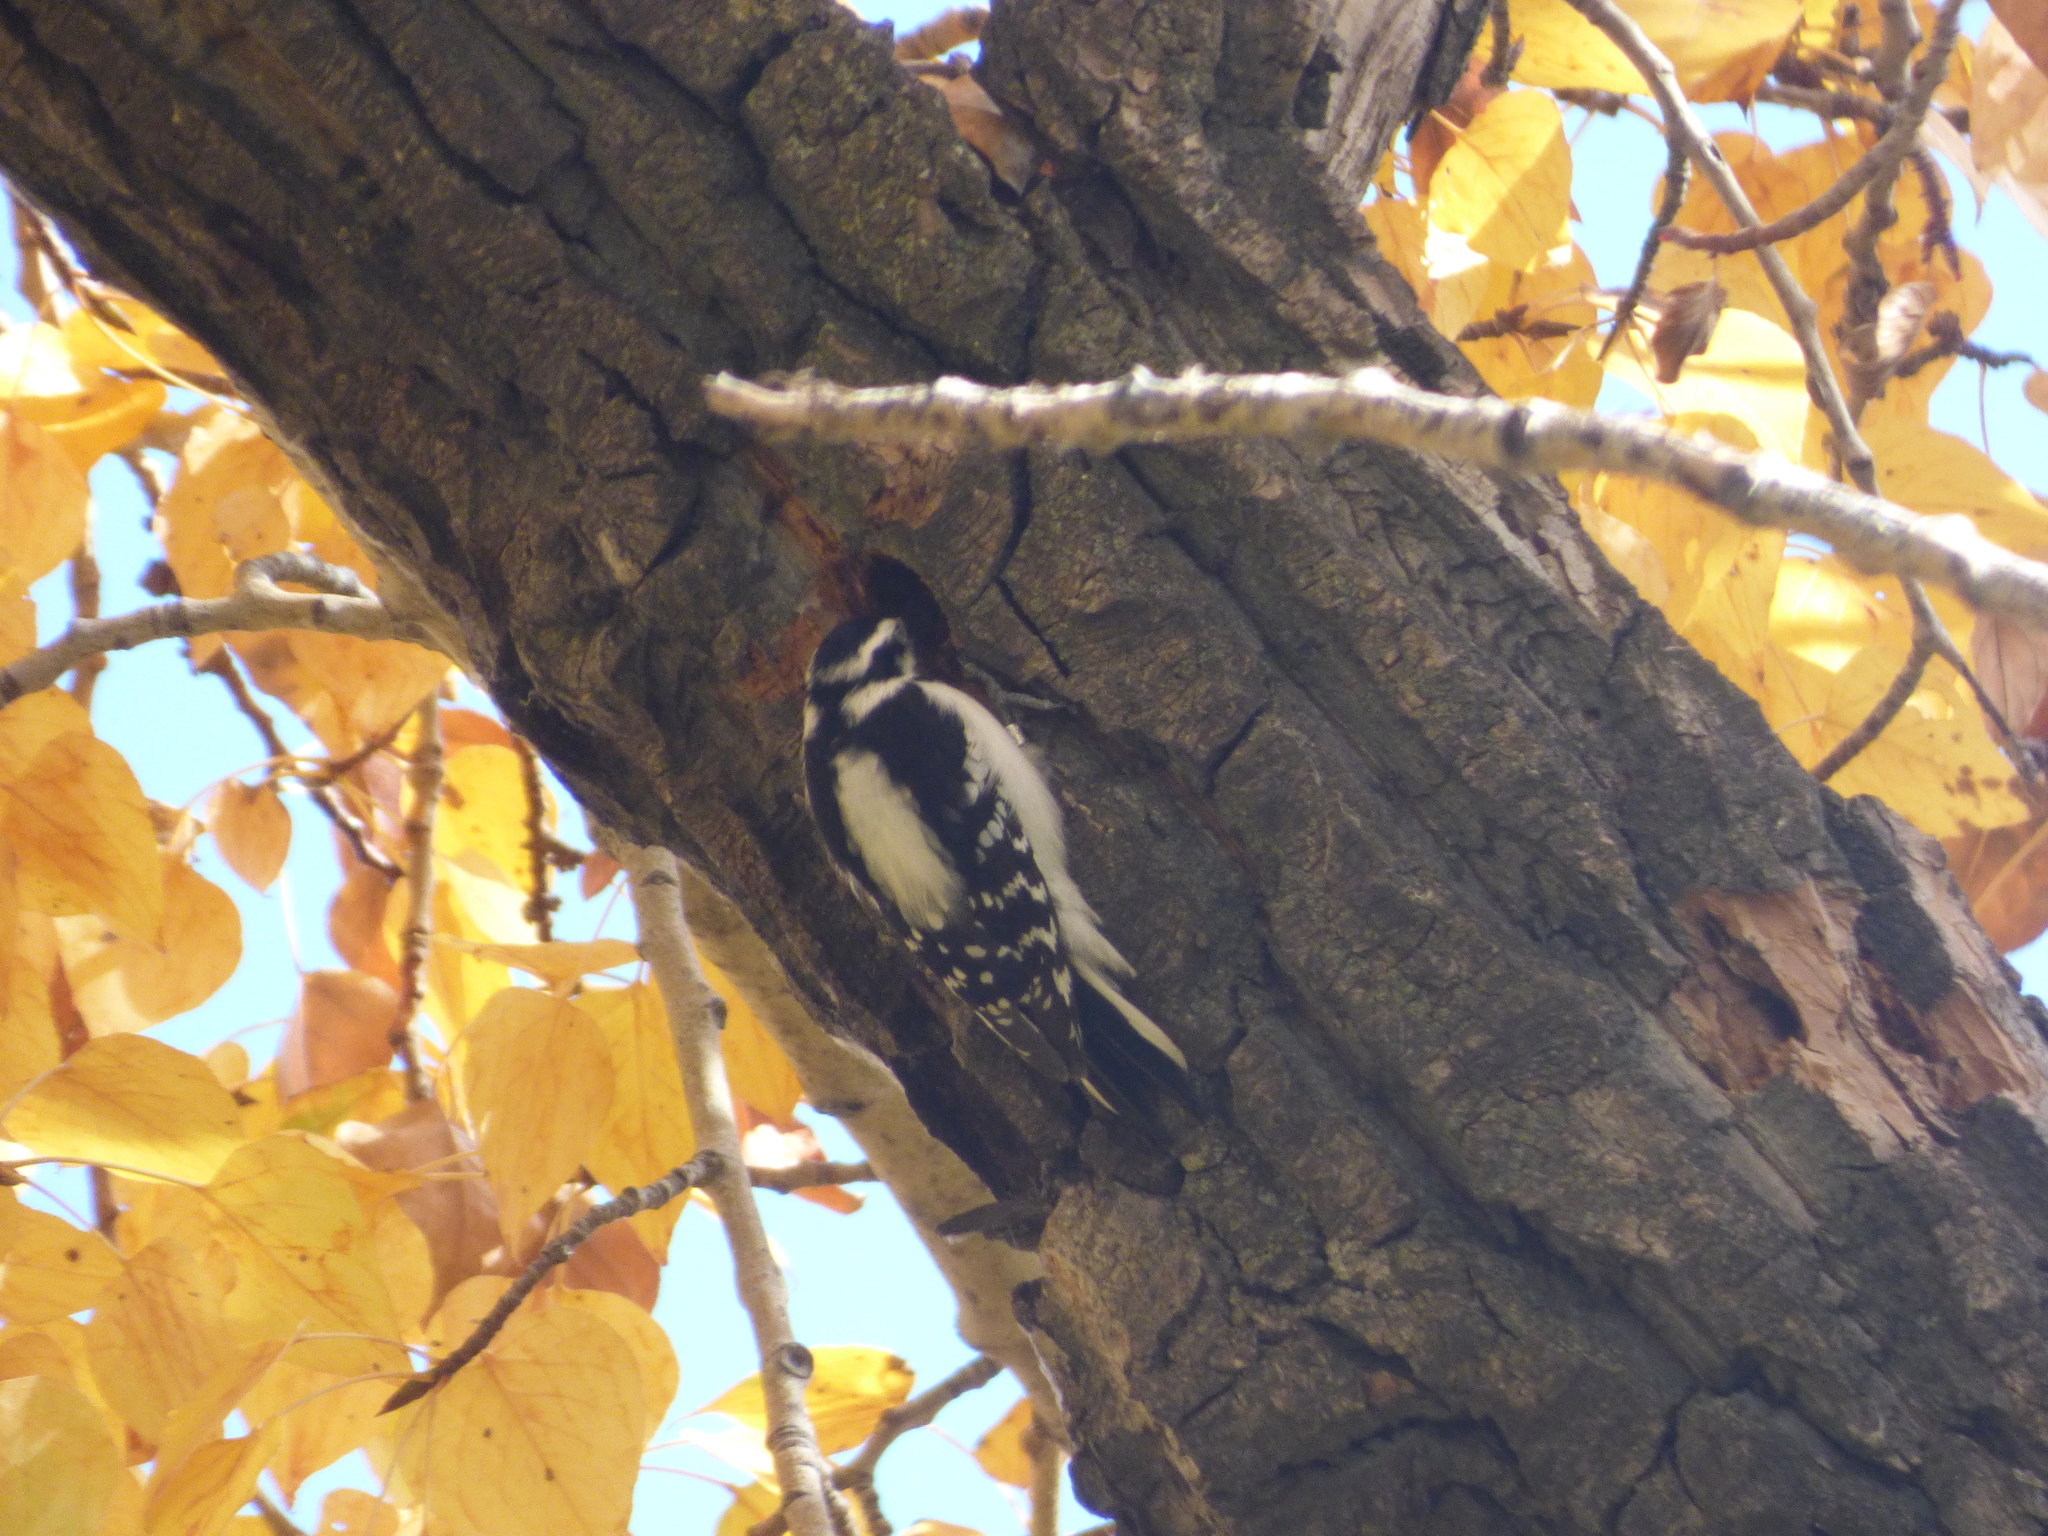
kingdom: Animalia
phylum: Chordata
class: Aves
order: Piciformes
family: Picidae
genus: Leuconotopicus
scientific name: Leuconotopicus villosus
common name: Hairy woodpecker
